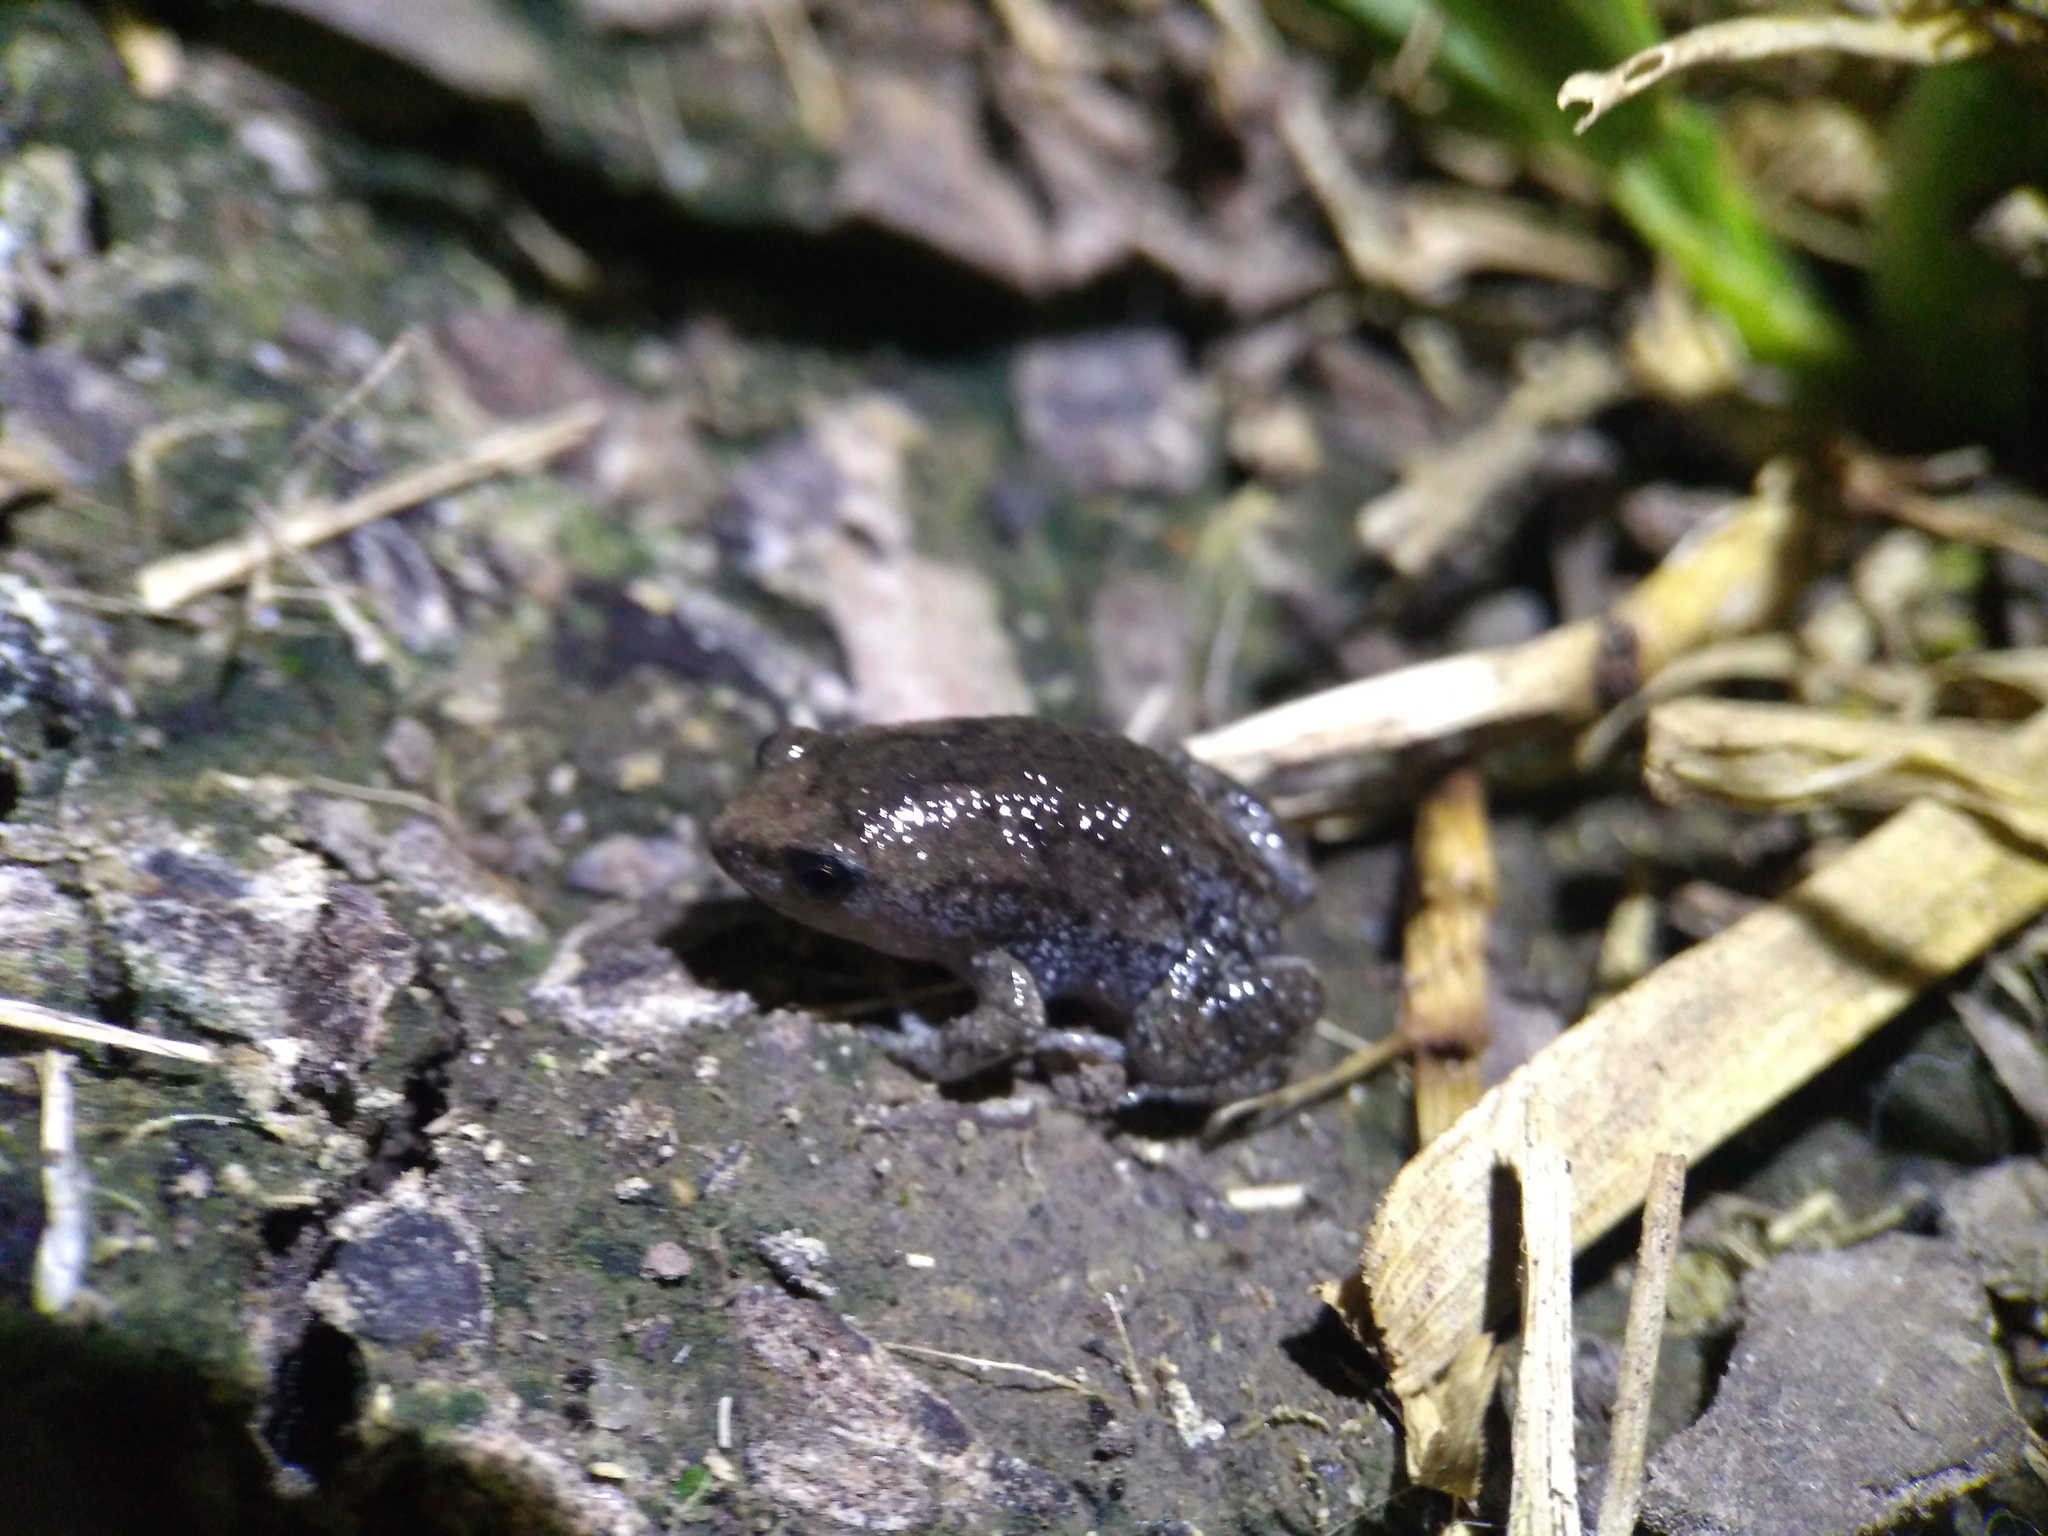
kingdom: Animalia
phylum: Chordata
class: Amphibia
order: Anura
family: Microhylidae
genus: Gastrophryne
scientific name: Gastrophryne carolinensis
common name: Eastern narrowmouth toad
